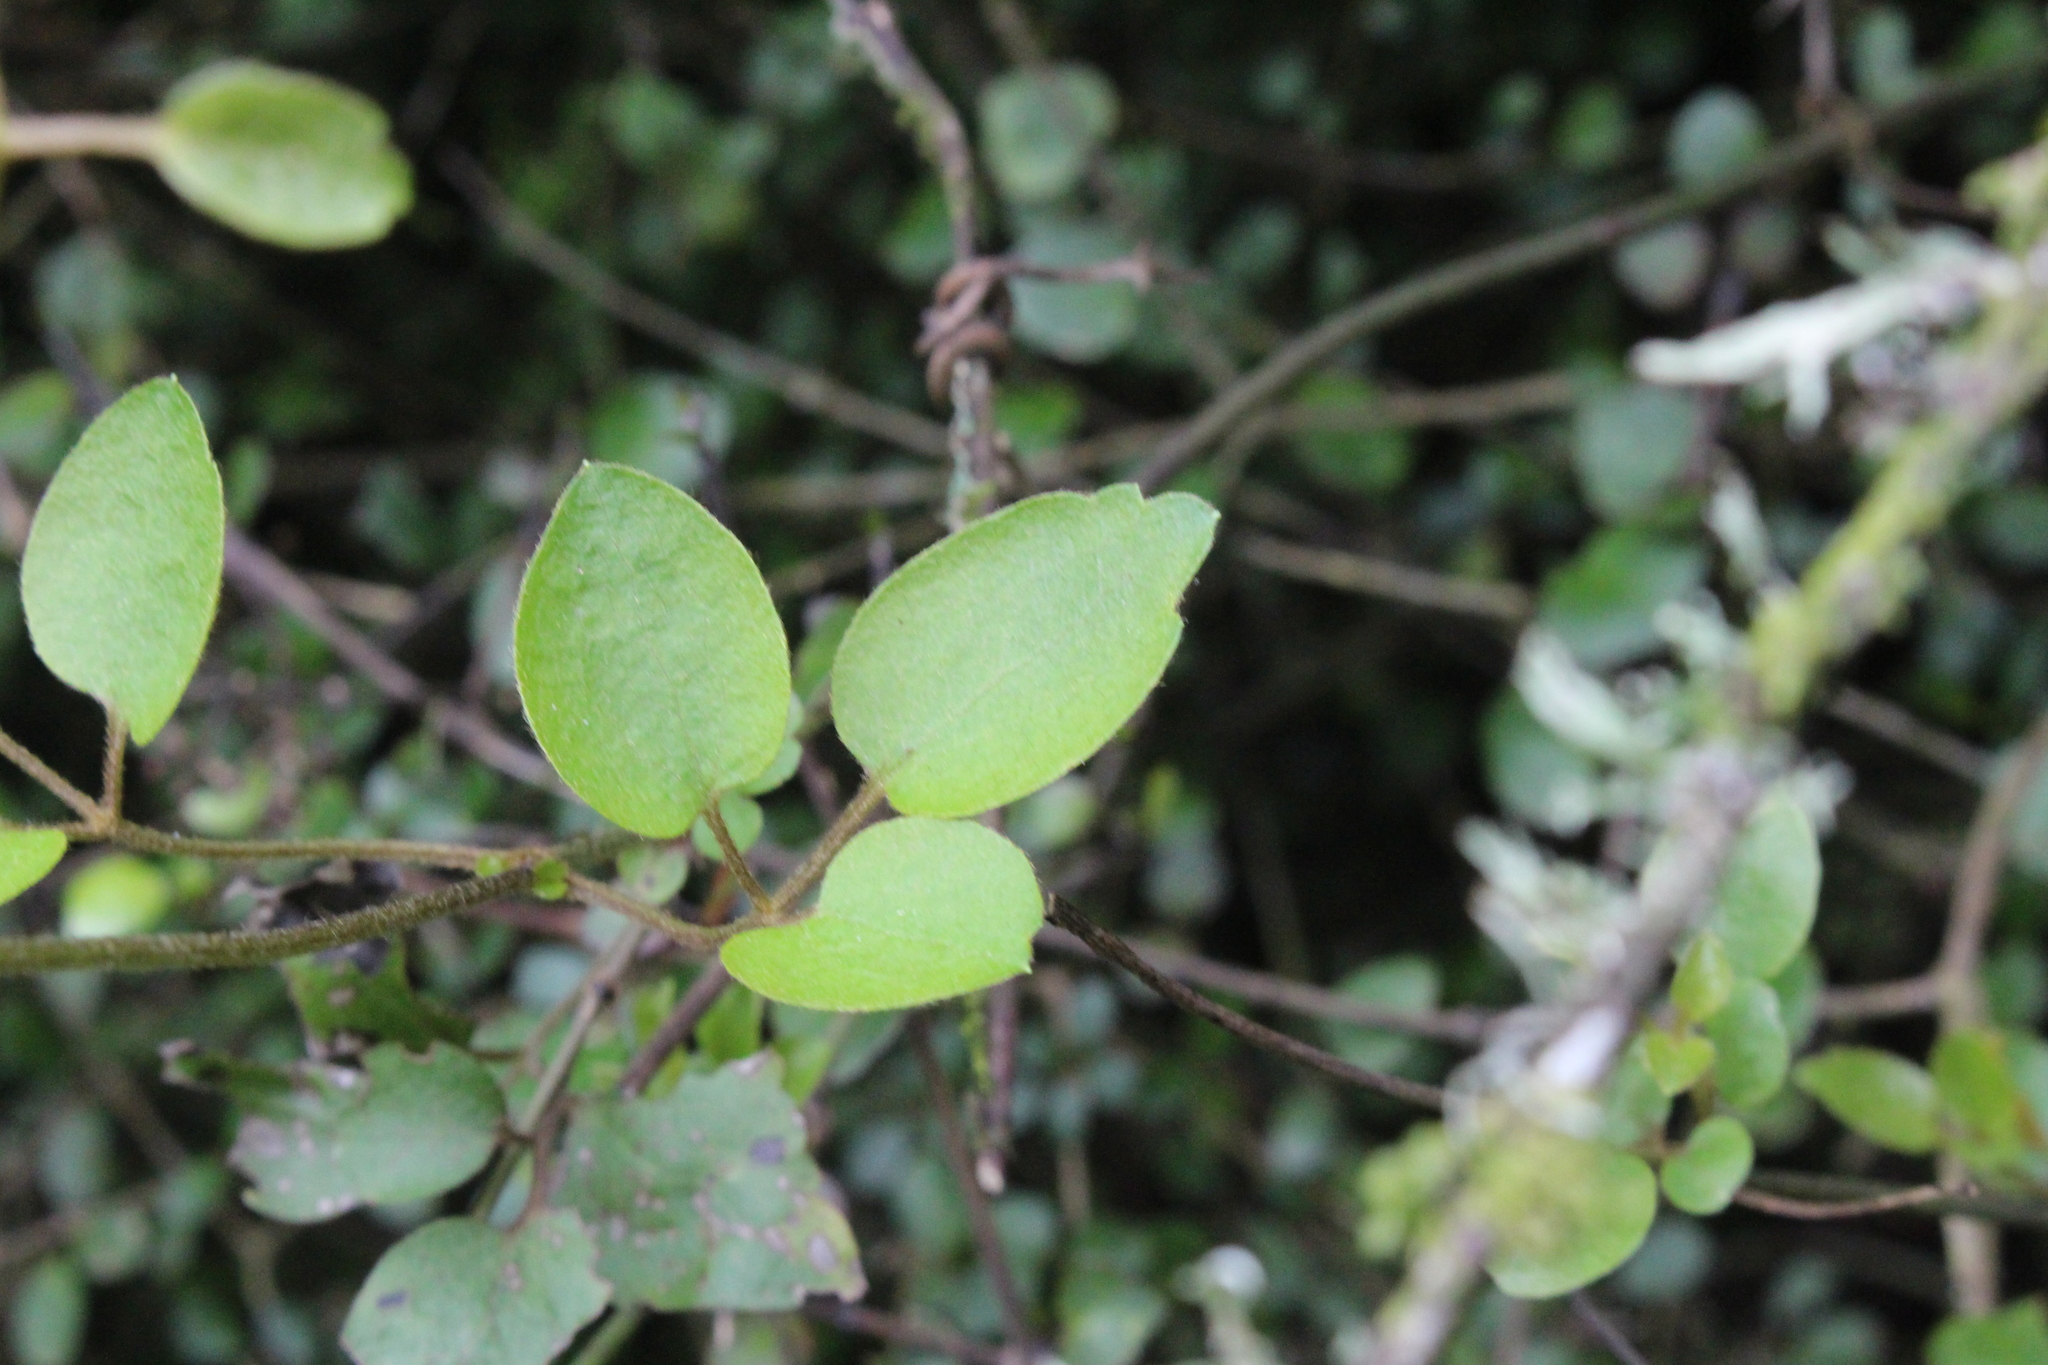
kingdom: Plantae
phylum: Tracheophyta
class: Magnoliopsida
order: Ranunculales
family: Ranunculaceae
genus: Clematis
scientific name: Clematis foetida
